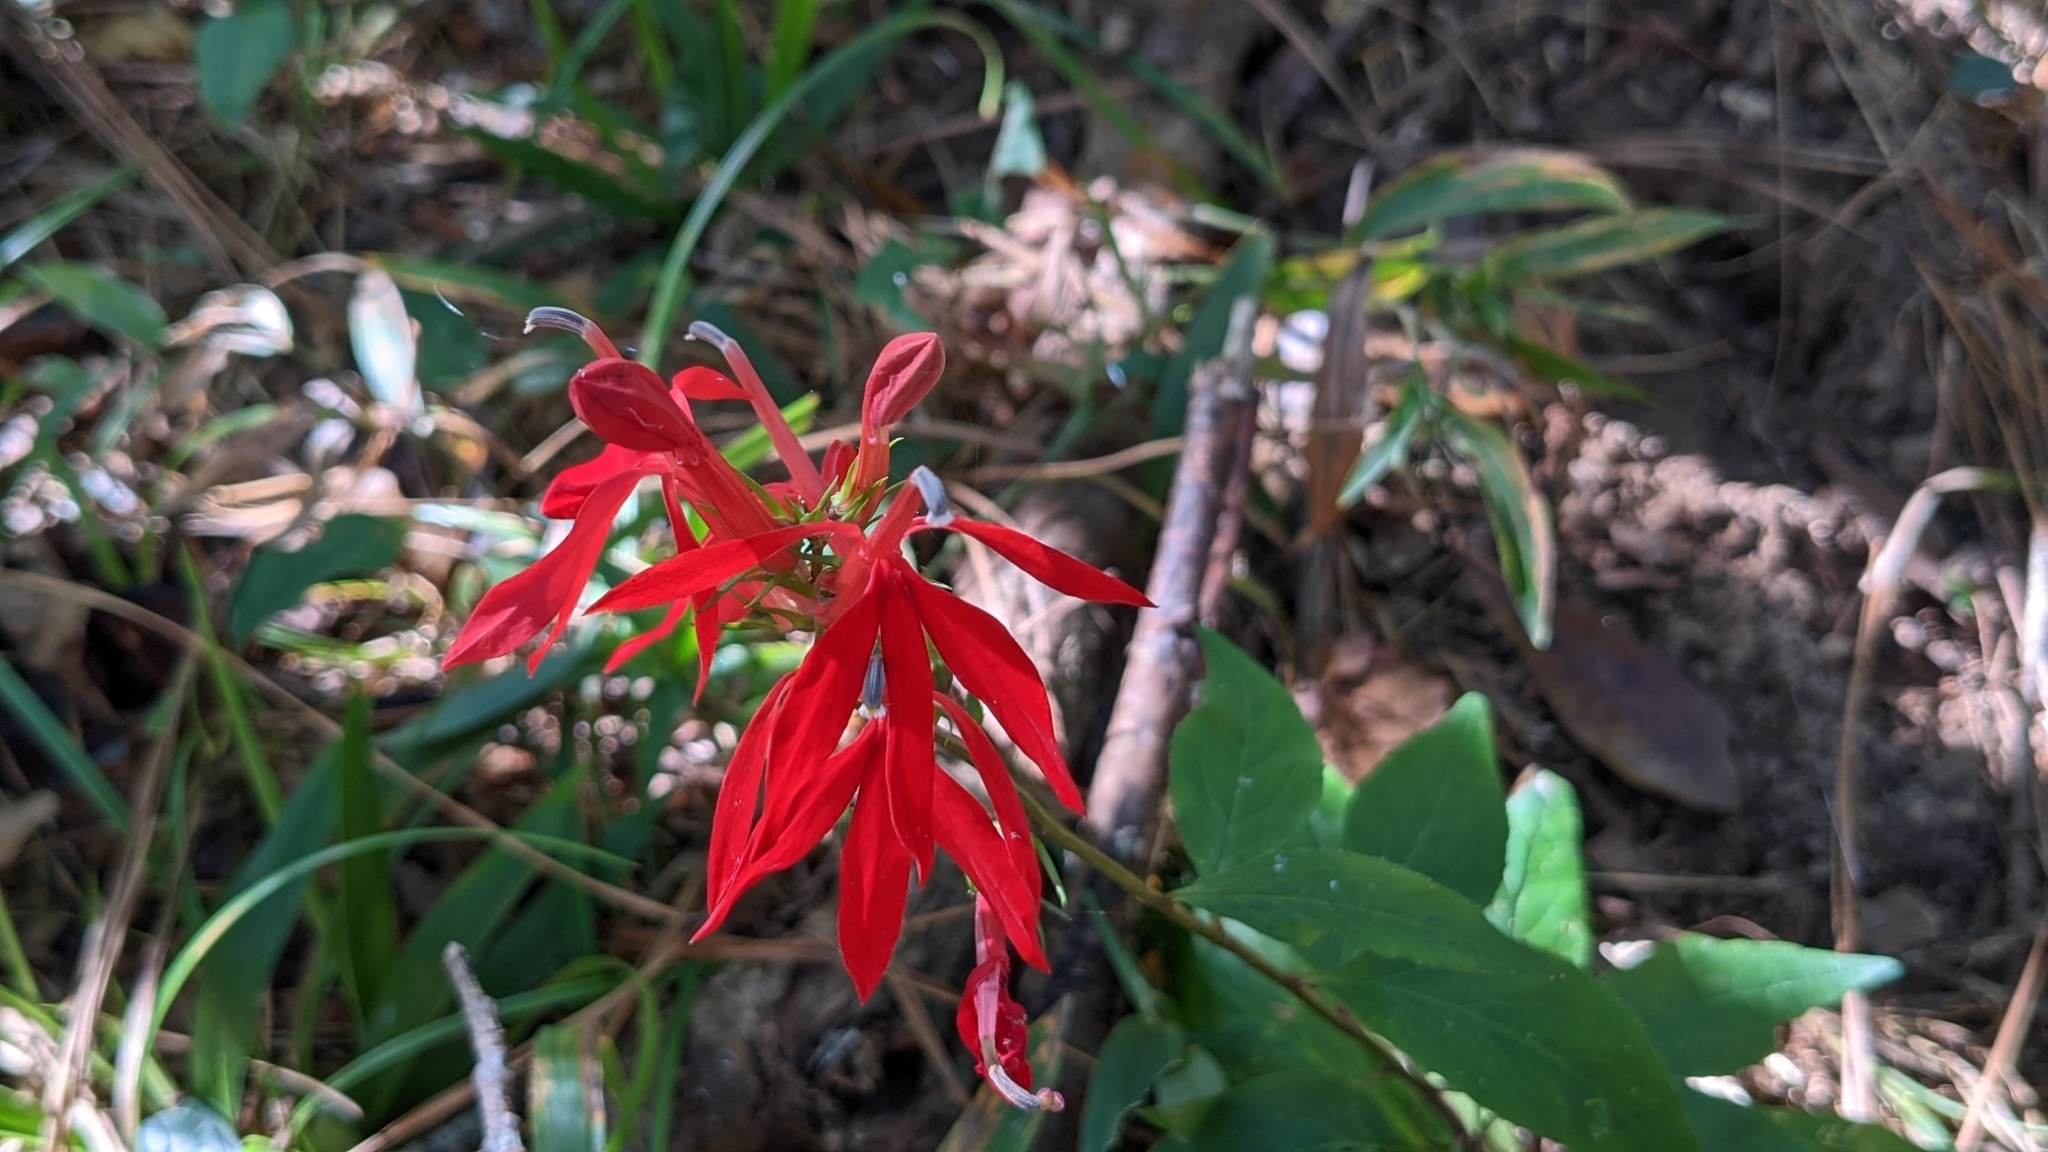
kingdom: Plantae
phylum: Tracheophyta
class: Magnoliopsida
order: Asterales
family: Campanulaceae
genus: Lobelia
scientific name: Lobelia cardinalis
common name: Cardinal flower
